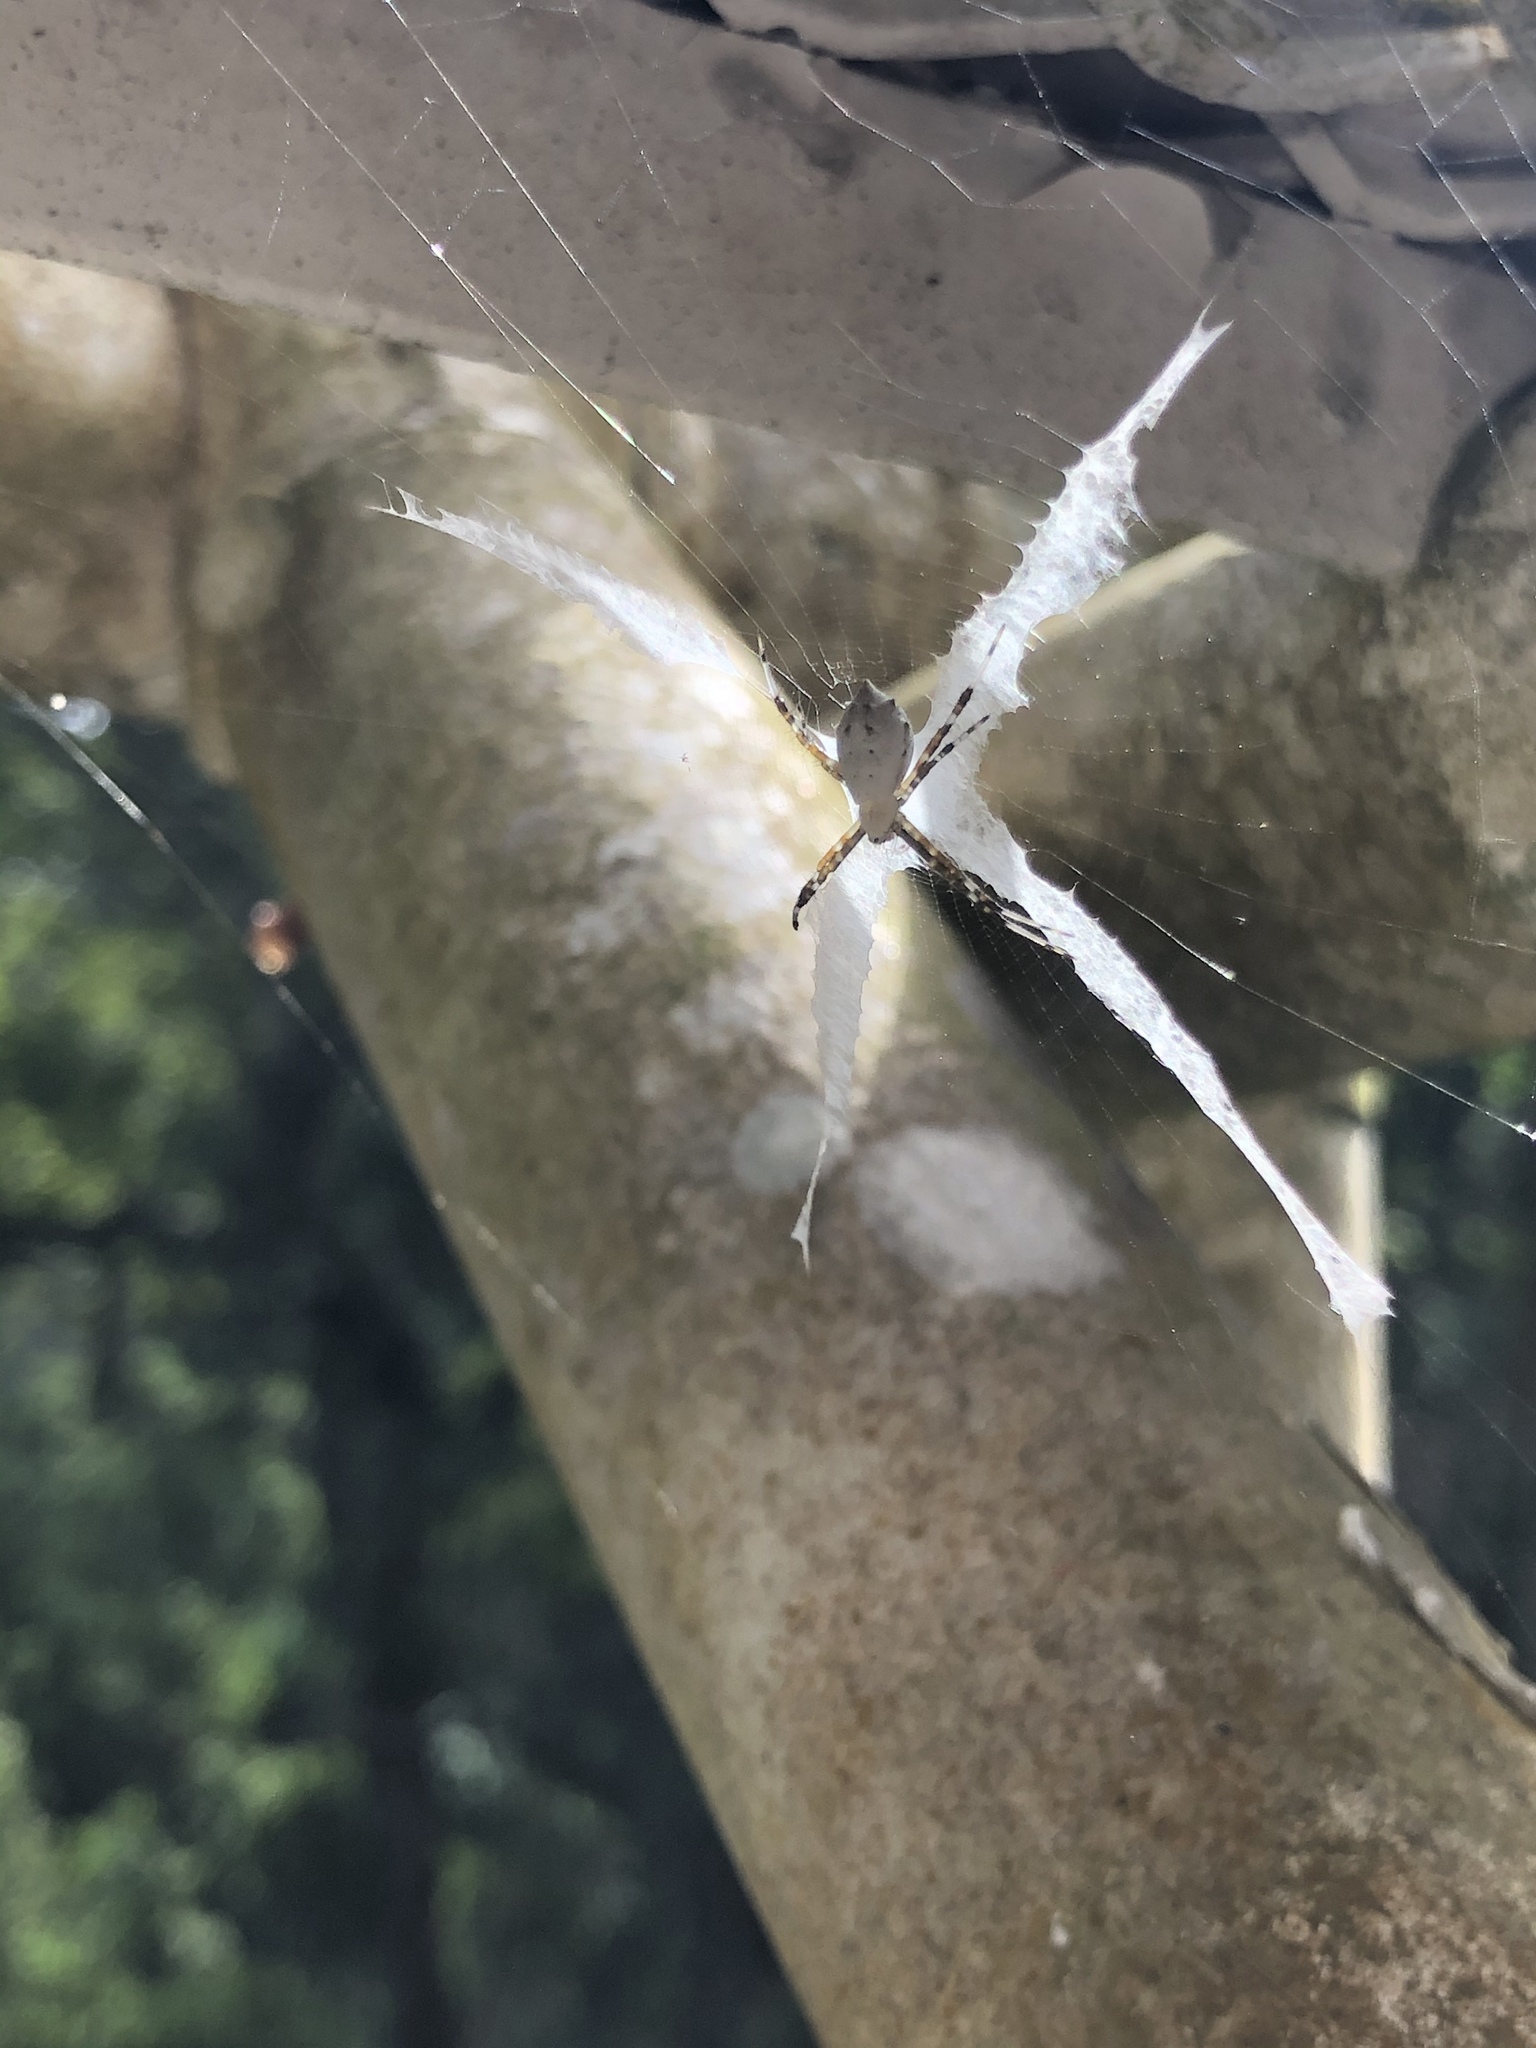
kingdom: Animalia
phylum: Arthropoda
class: Arachnida
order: Araneae
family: Araneidae
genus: Argiope
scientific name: Argiope submaronica
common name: Orb weavers
